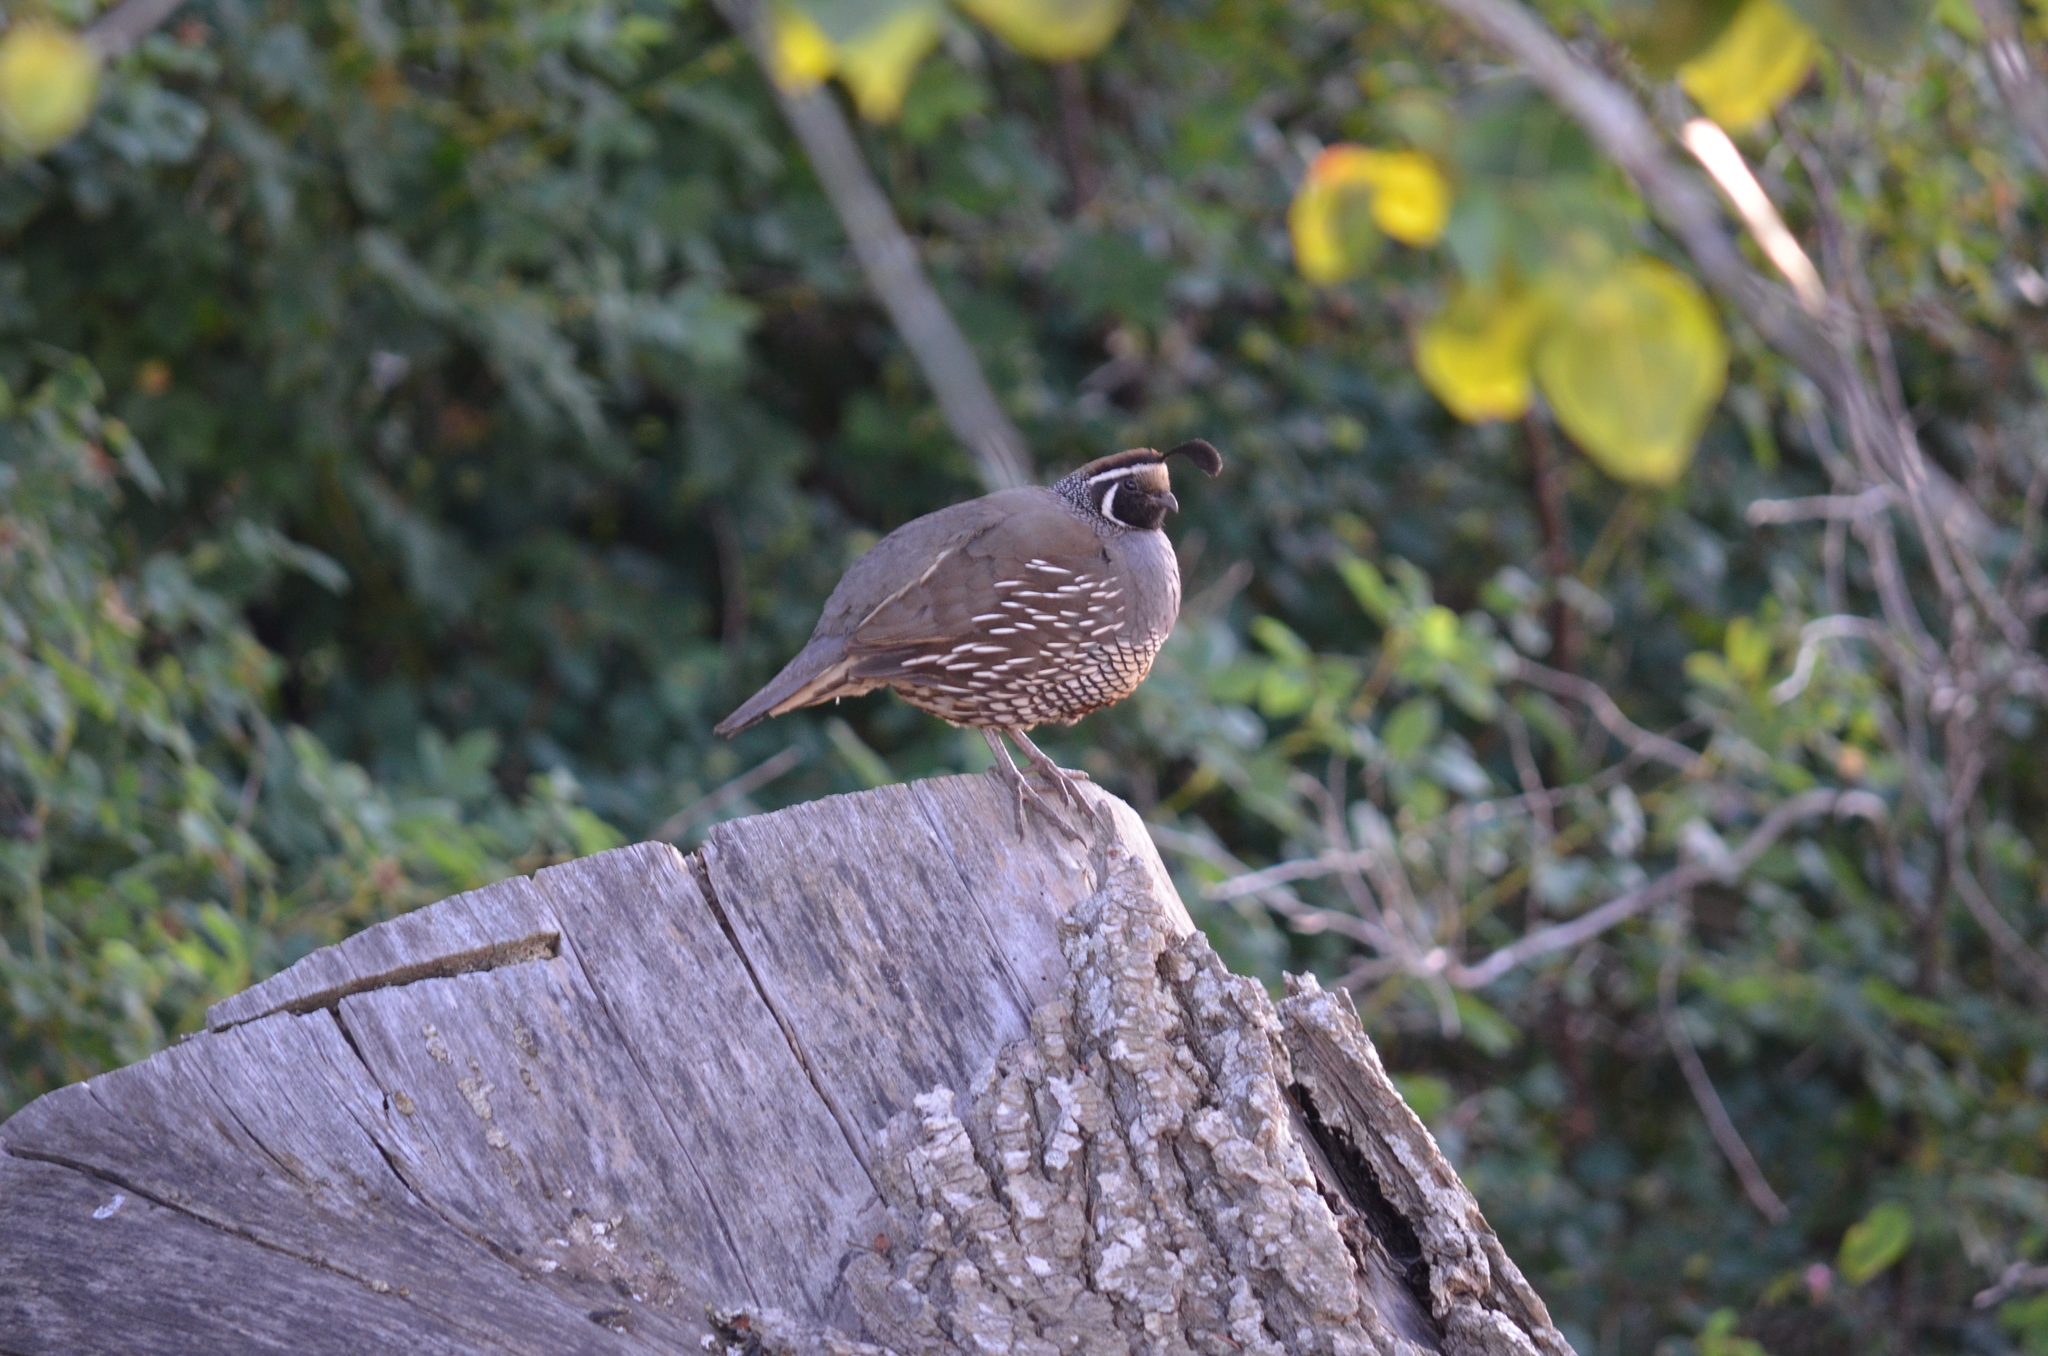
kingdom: Animalia
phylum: Chordata
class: Aves
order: Galliformes
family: Odontophoridae
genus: Callipepla
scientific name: Callipepla californica
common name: California quail
